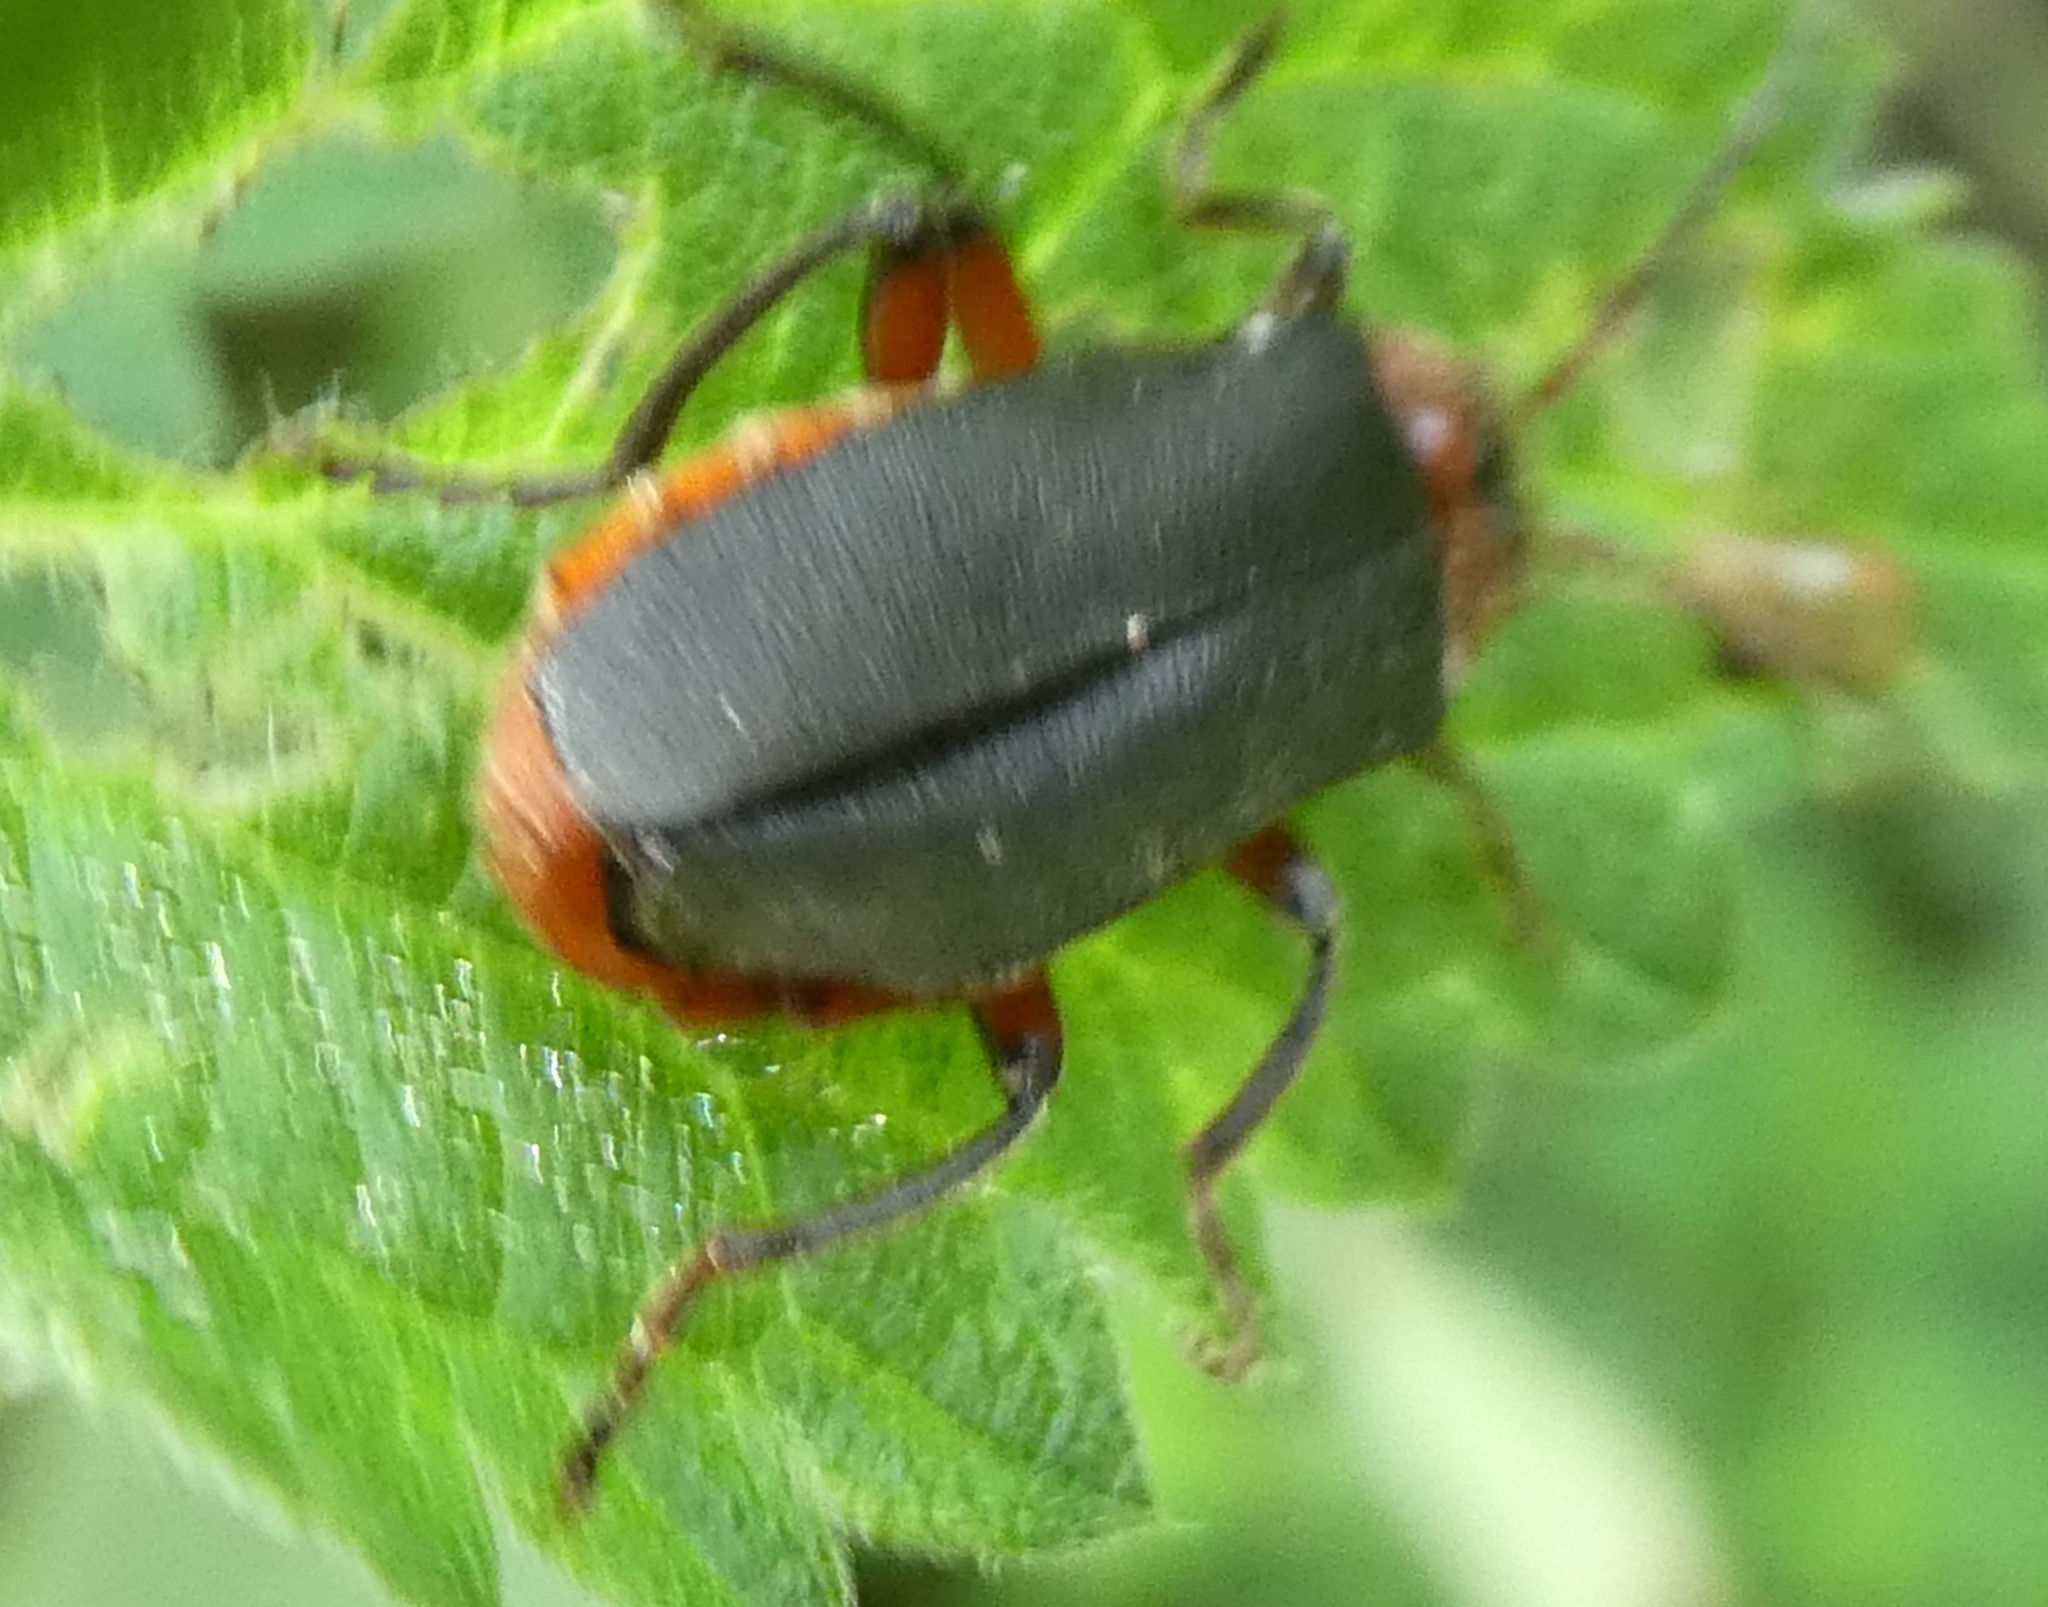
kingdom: Animalia
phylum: Arthropoda
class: Insecta
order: Coleoptera
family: Cantharidae
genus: Cantharis
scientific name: Cantharis rustica
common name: Soldier beetle
